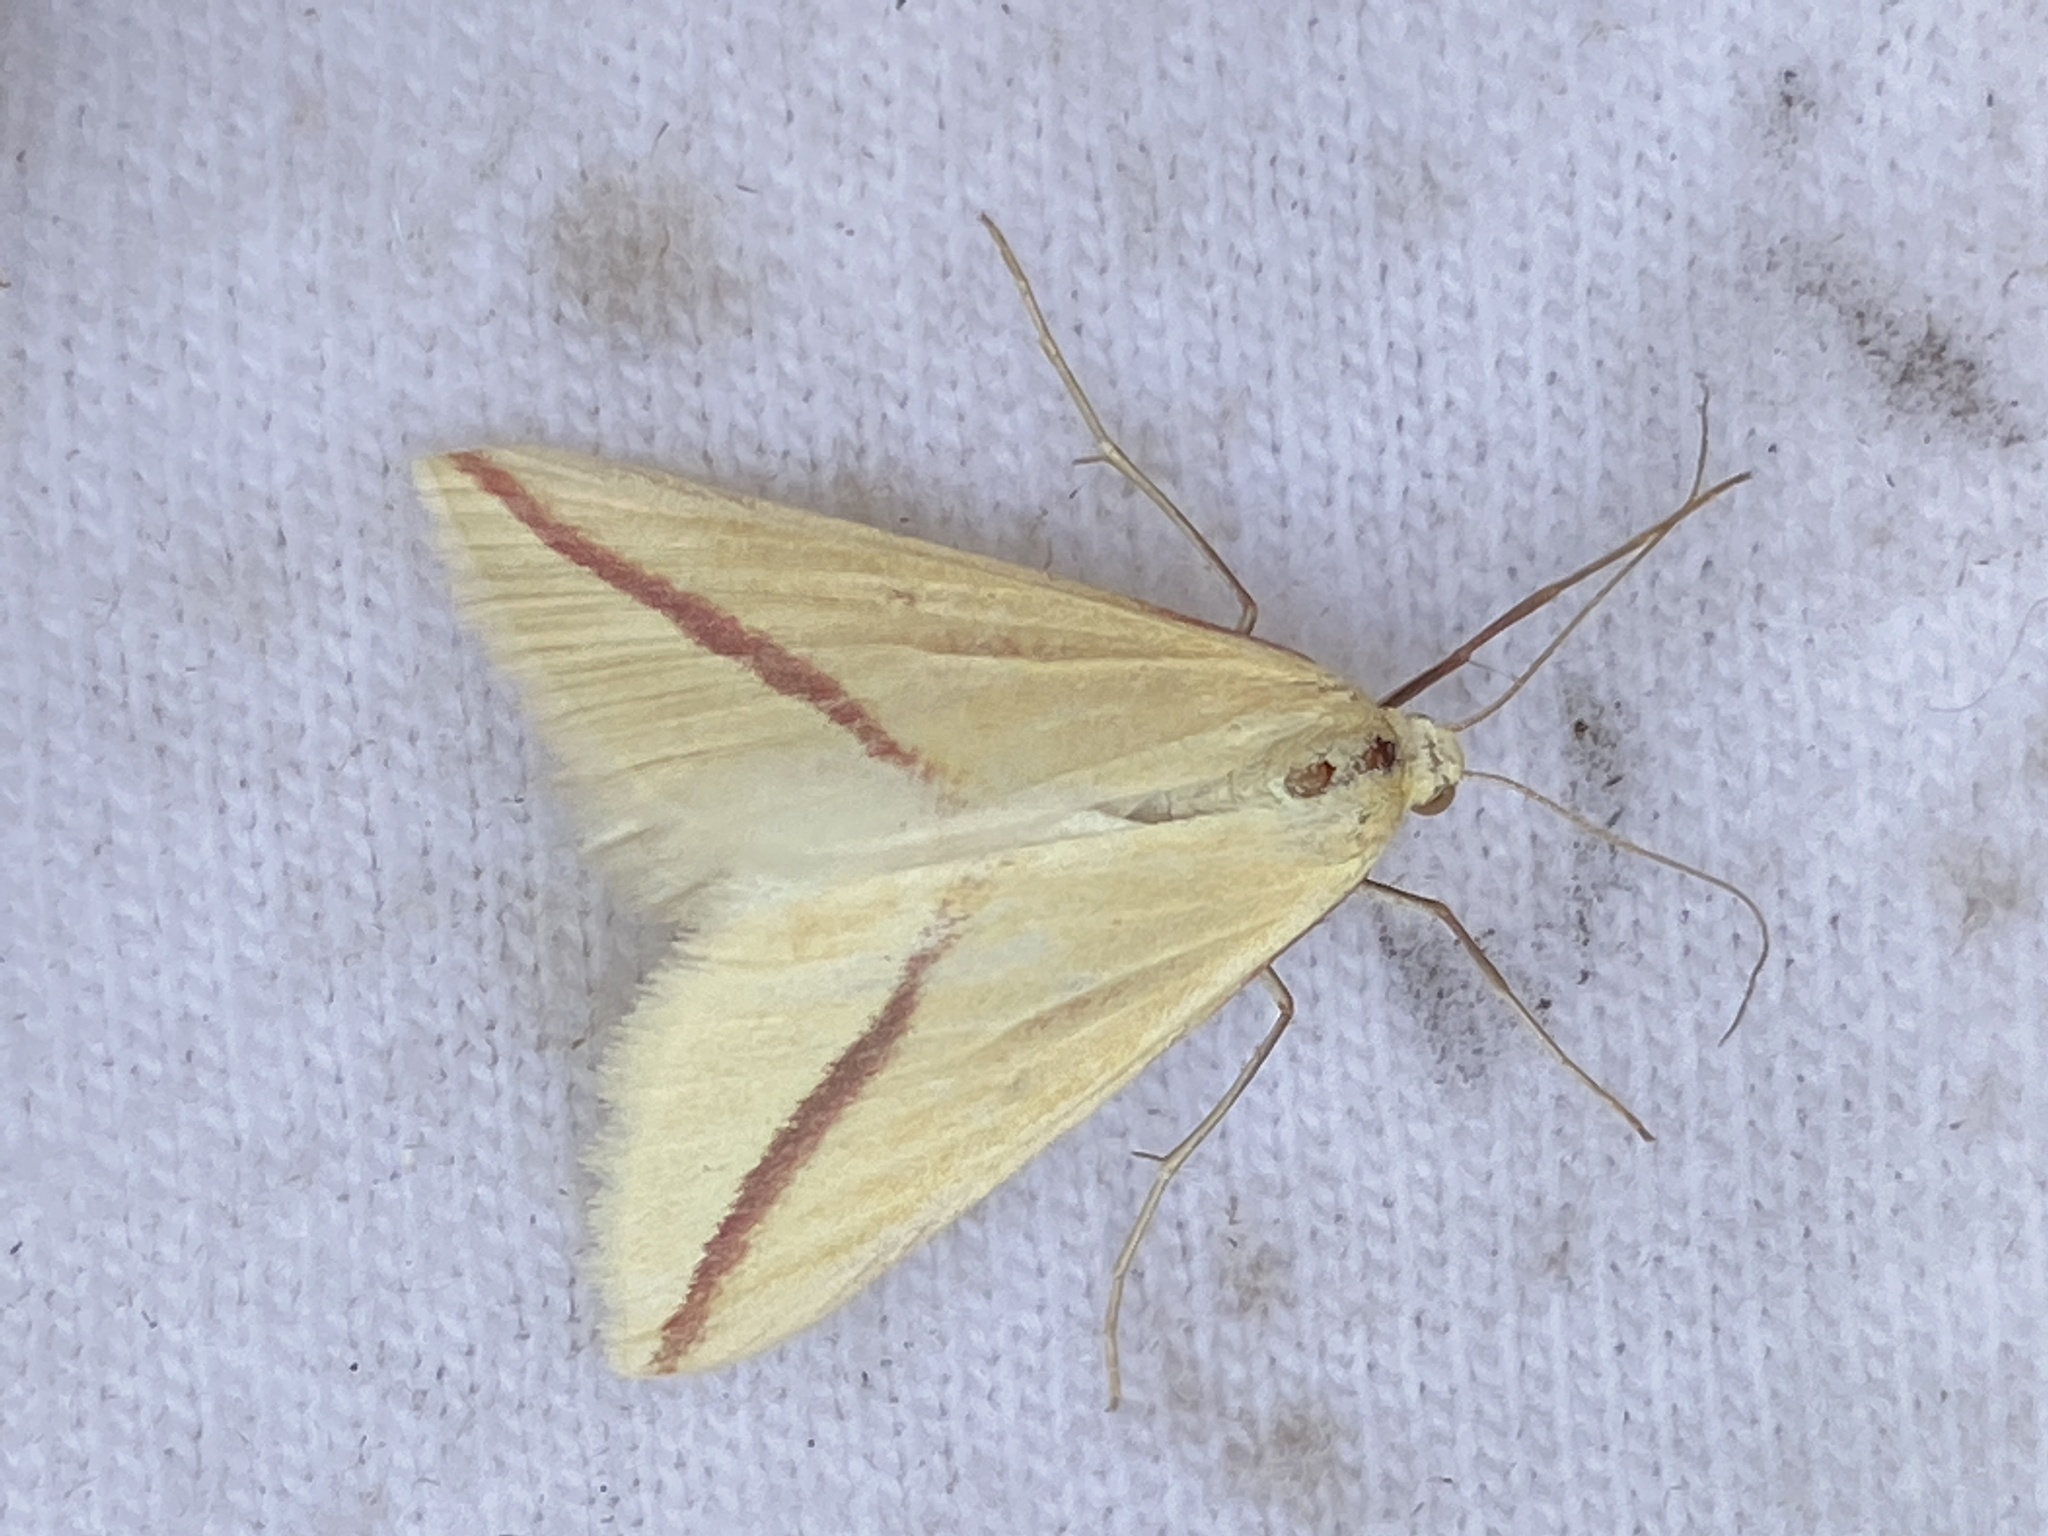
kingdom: Animalia
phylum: Arthropoda
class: Insecta
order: Lepidoptera
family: Geometridae
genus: Rhodometra
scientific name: Rhodometra sacraria
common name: Vestal
